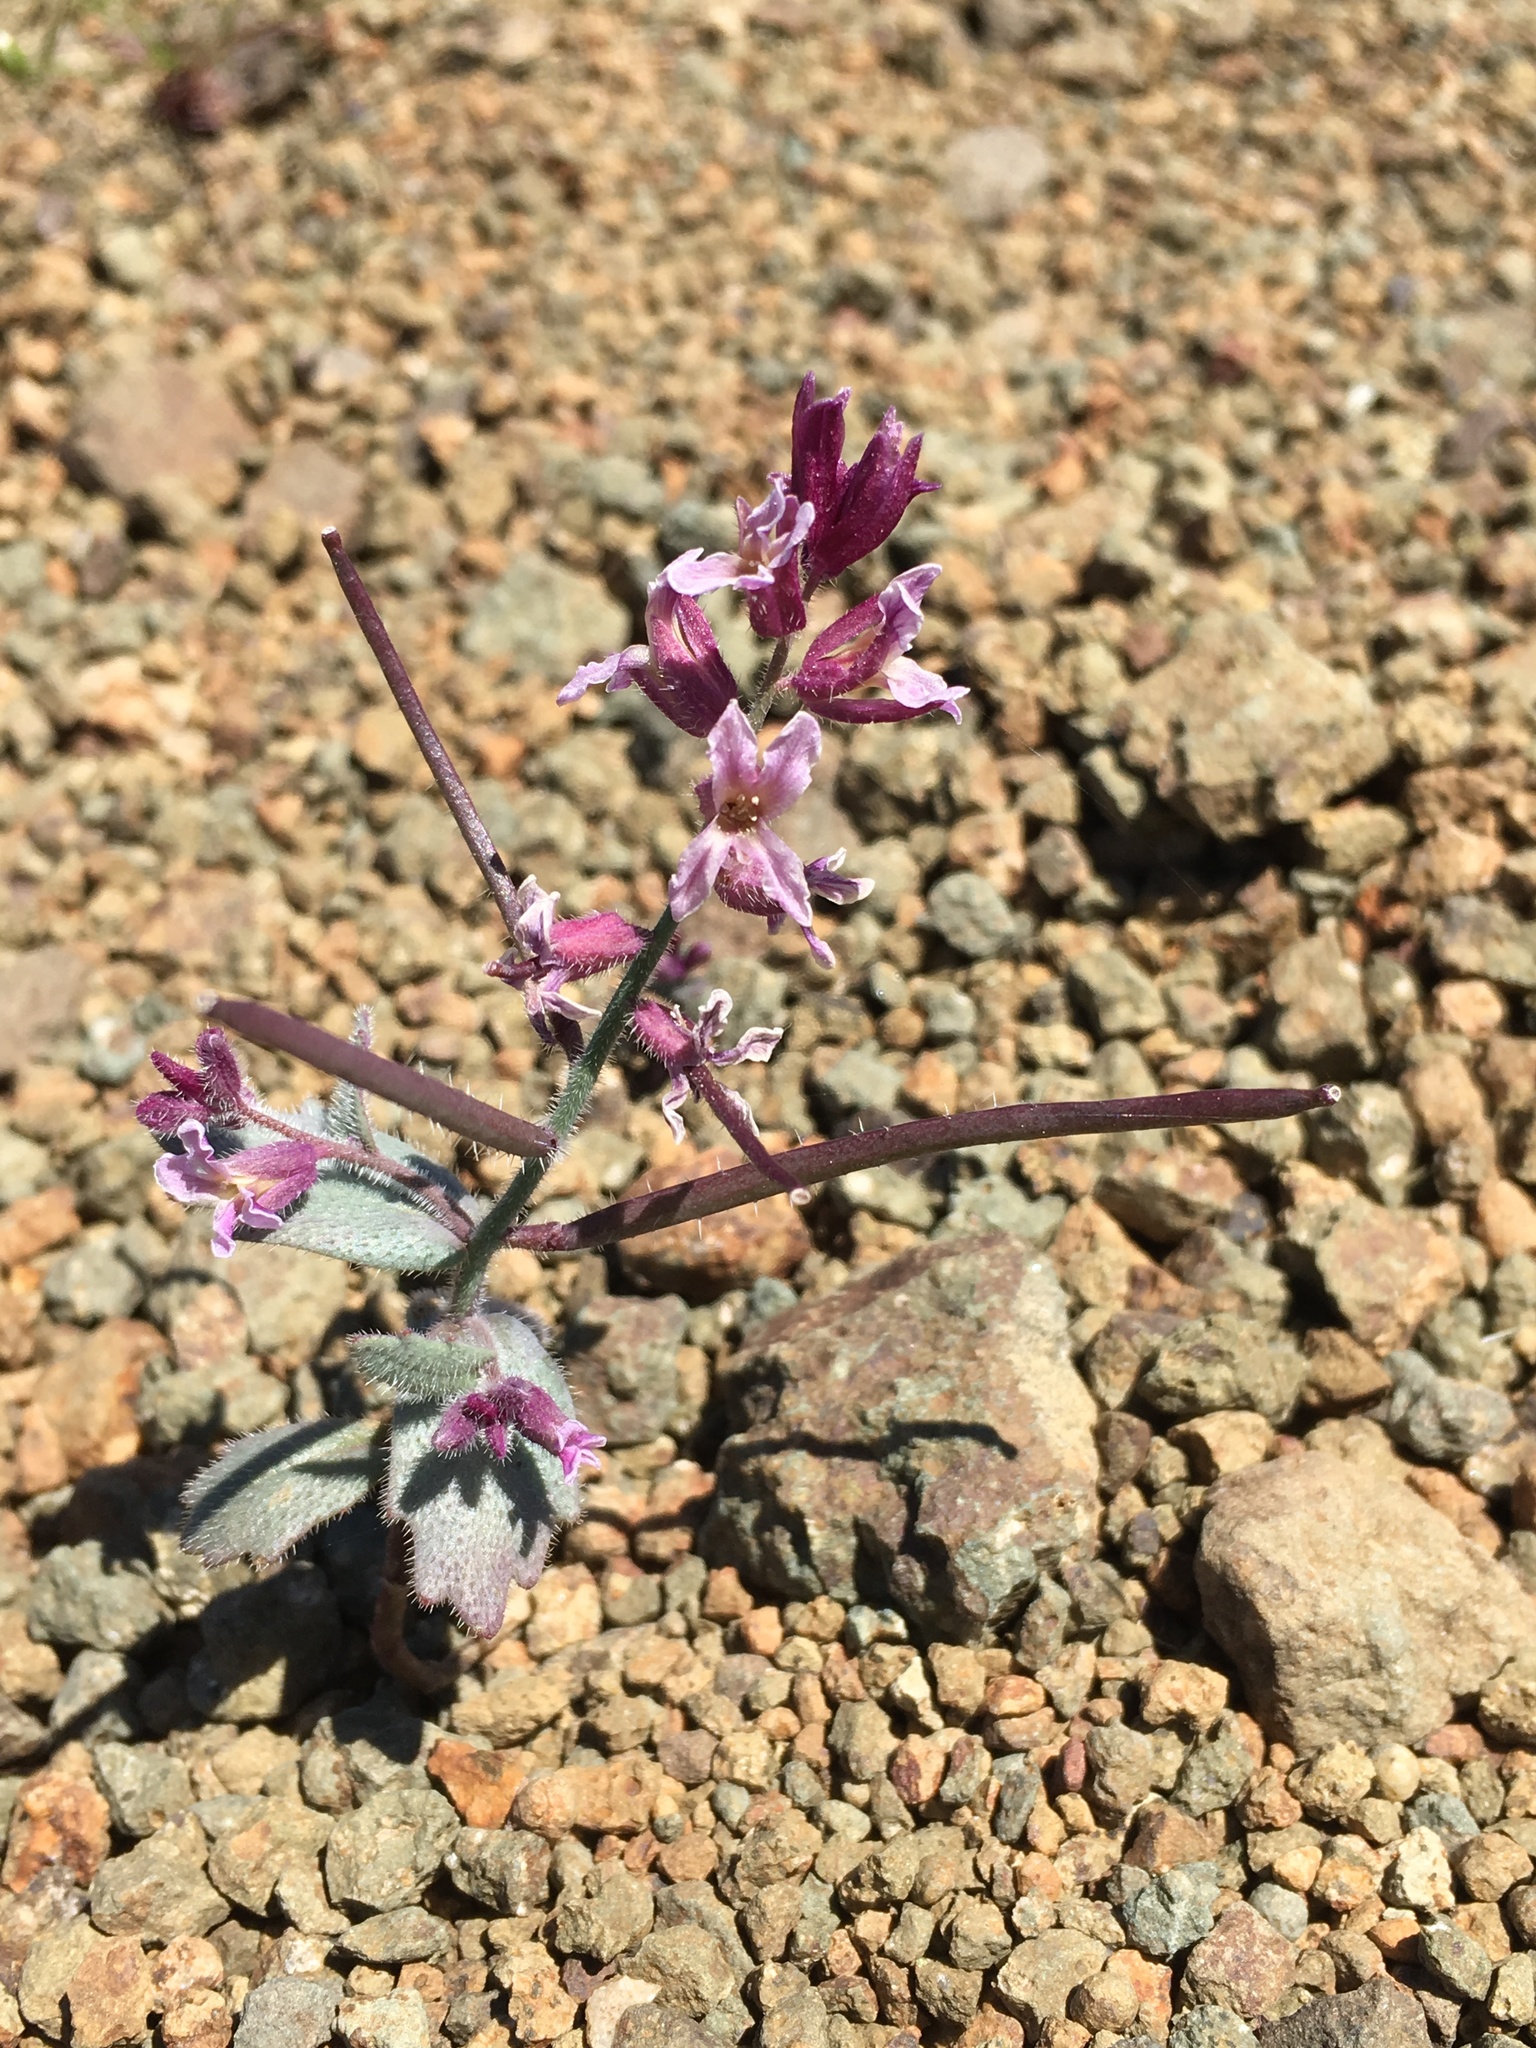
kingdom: Plantae
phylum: Tracheophyta
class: Magnoliopsida
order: Brassicales
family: Brassicaceae
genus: Streptanthus
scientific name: Streptanthus hispidus
